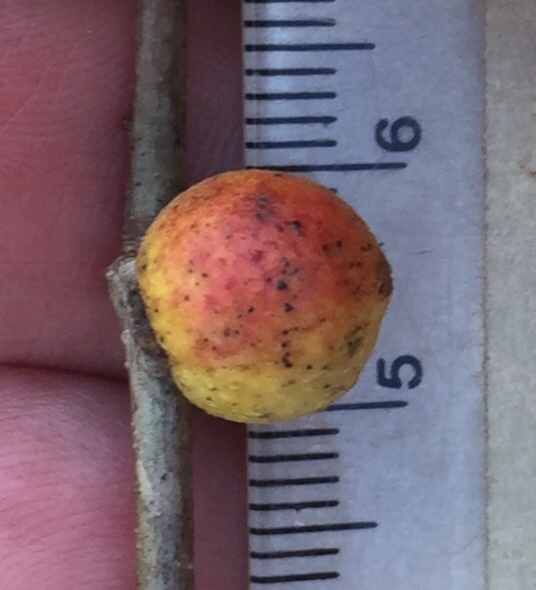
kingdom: Animalia
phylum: Arthropoda
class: Insecta
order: Hymenoptera
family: Cynipidae
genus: Disholcaspis
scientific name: Disholcaspis quercusglobulus
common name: Round bullet gall wasp
